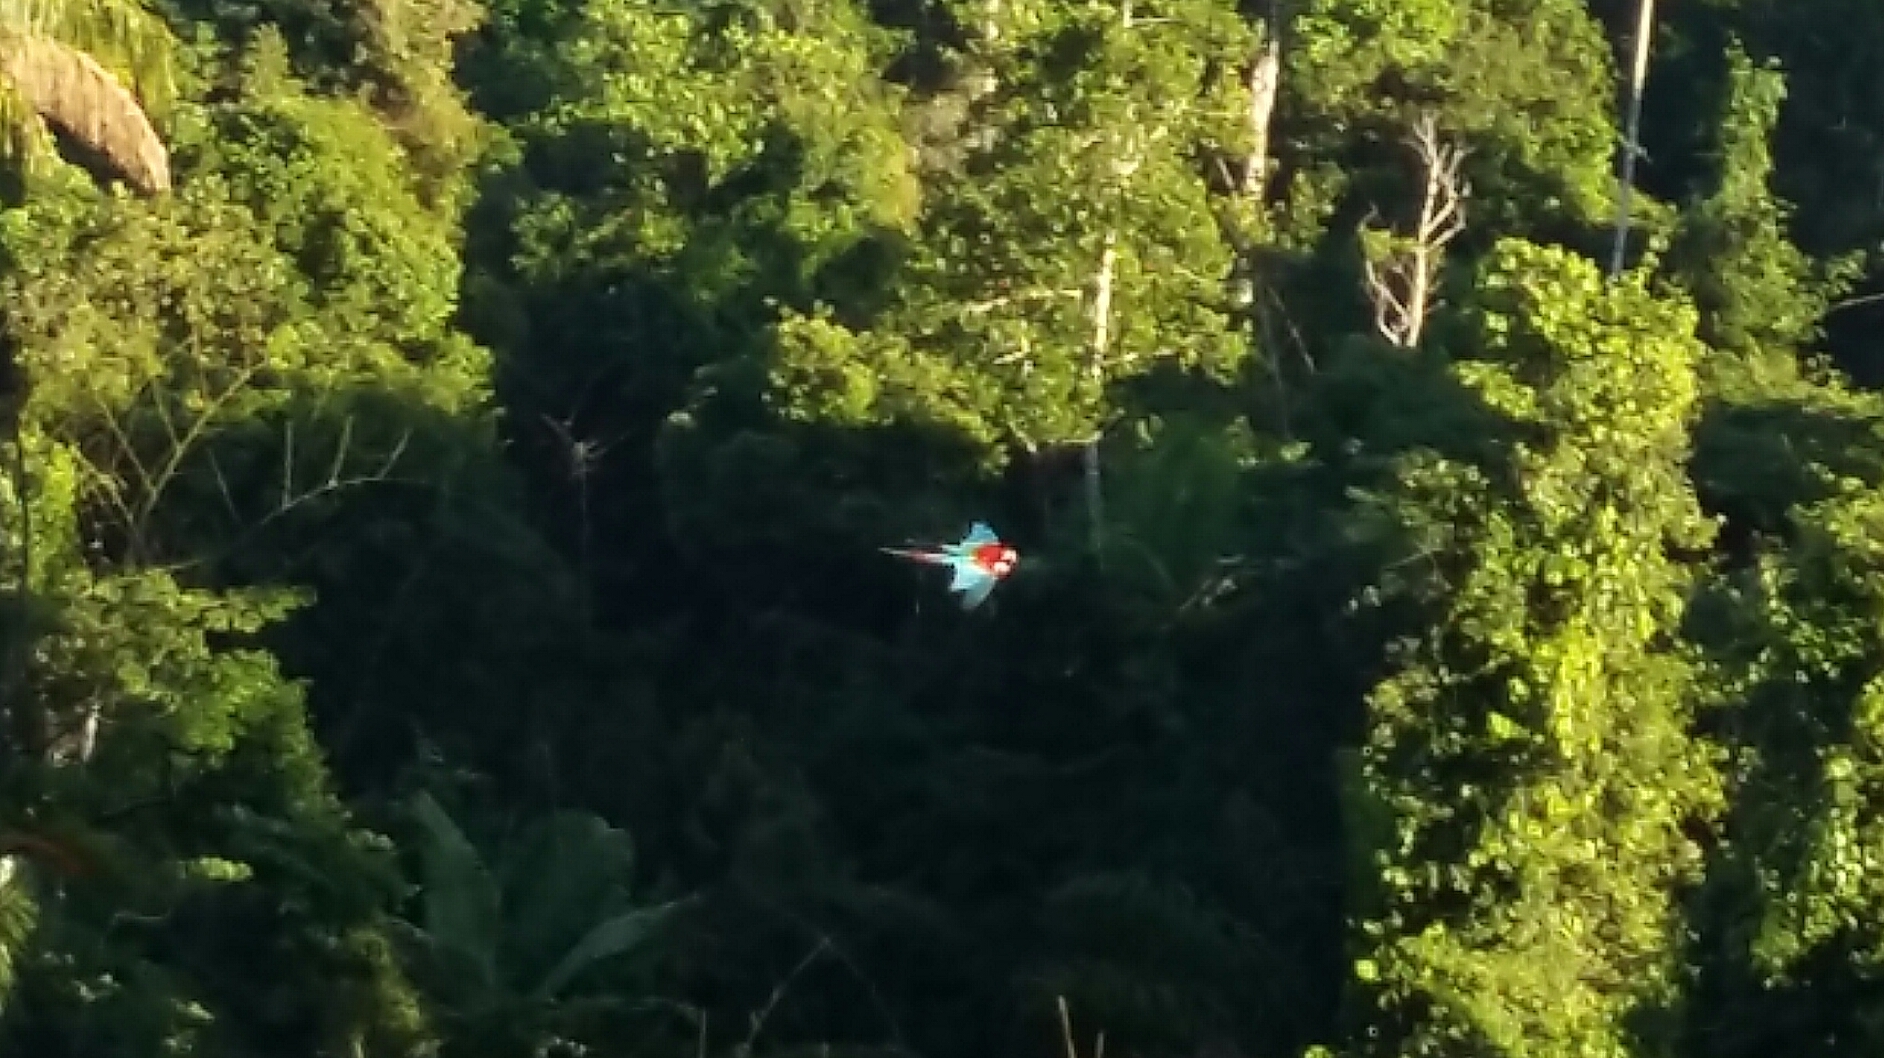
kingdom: Animalia
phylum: Chordata
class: Aves
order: Psittaciformes
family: Psittacidae
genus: Ara
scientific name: Ara chloropterus
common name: Red-and-green macaw
